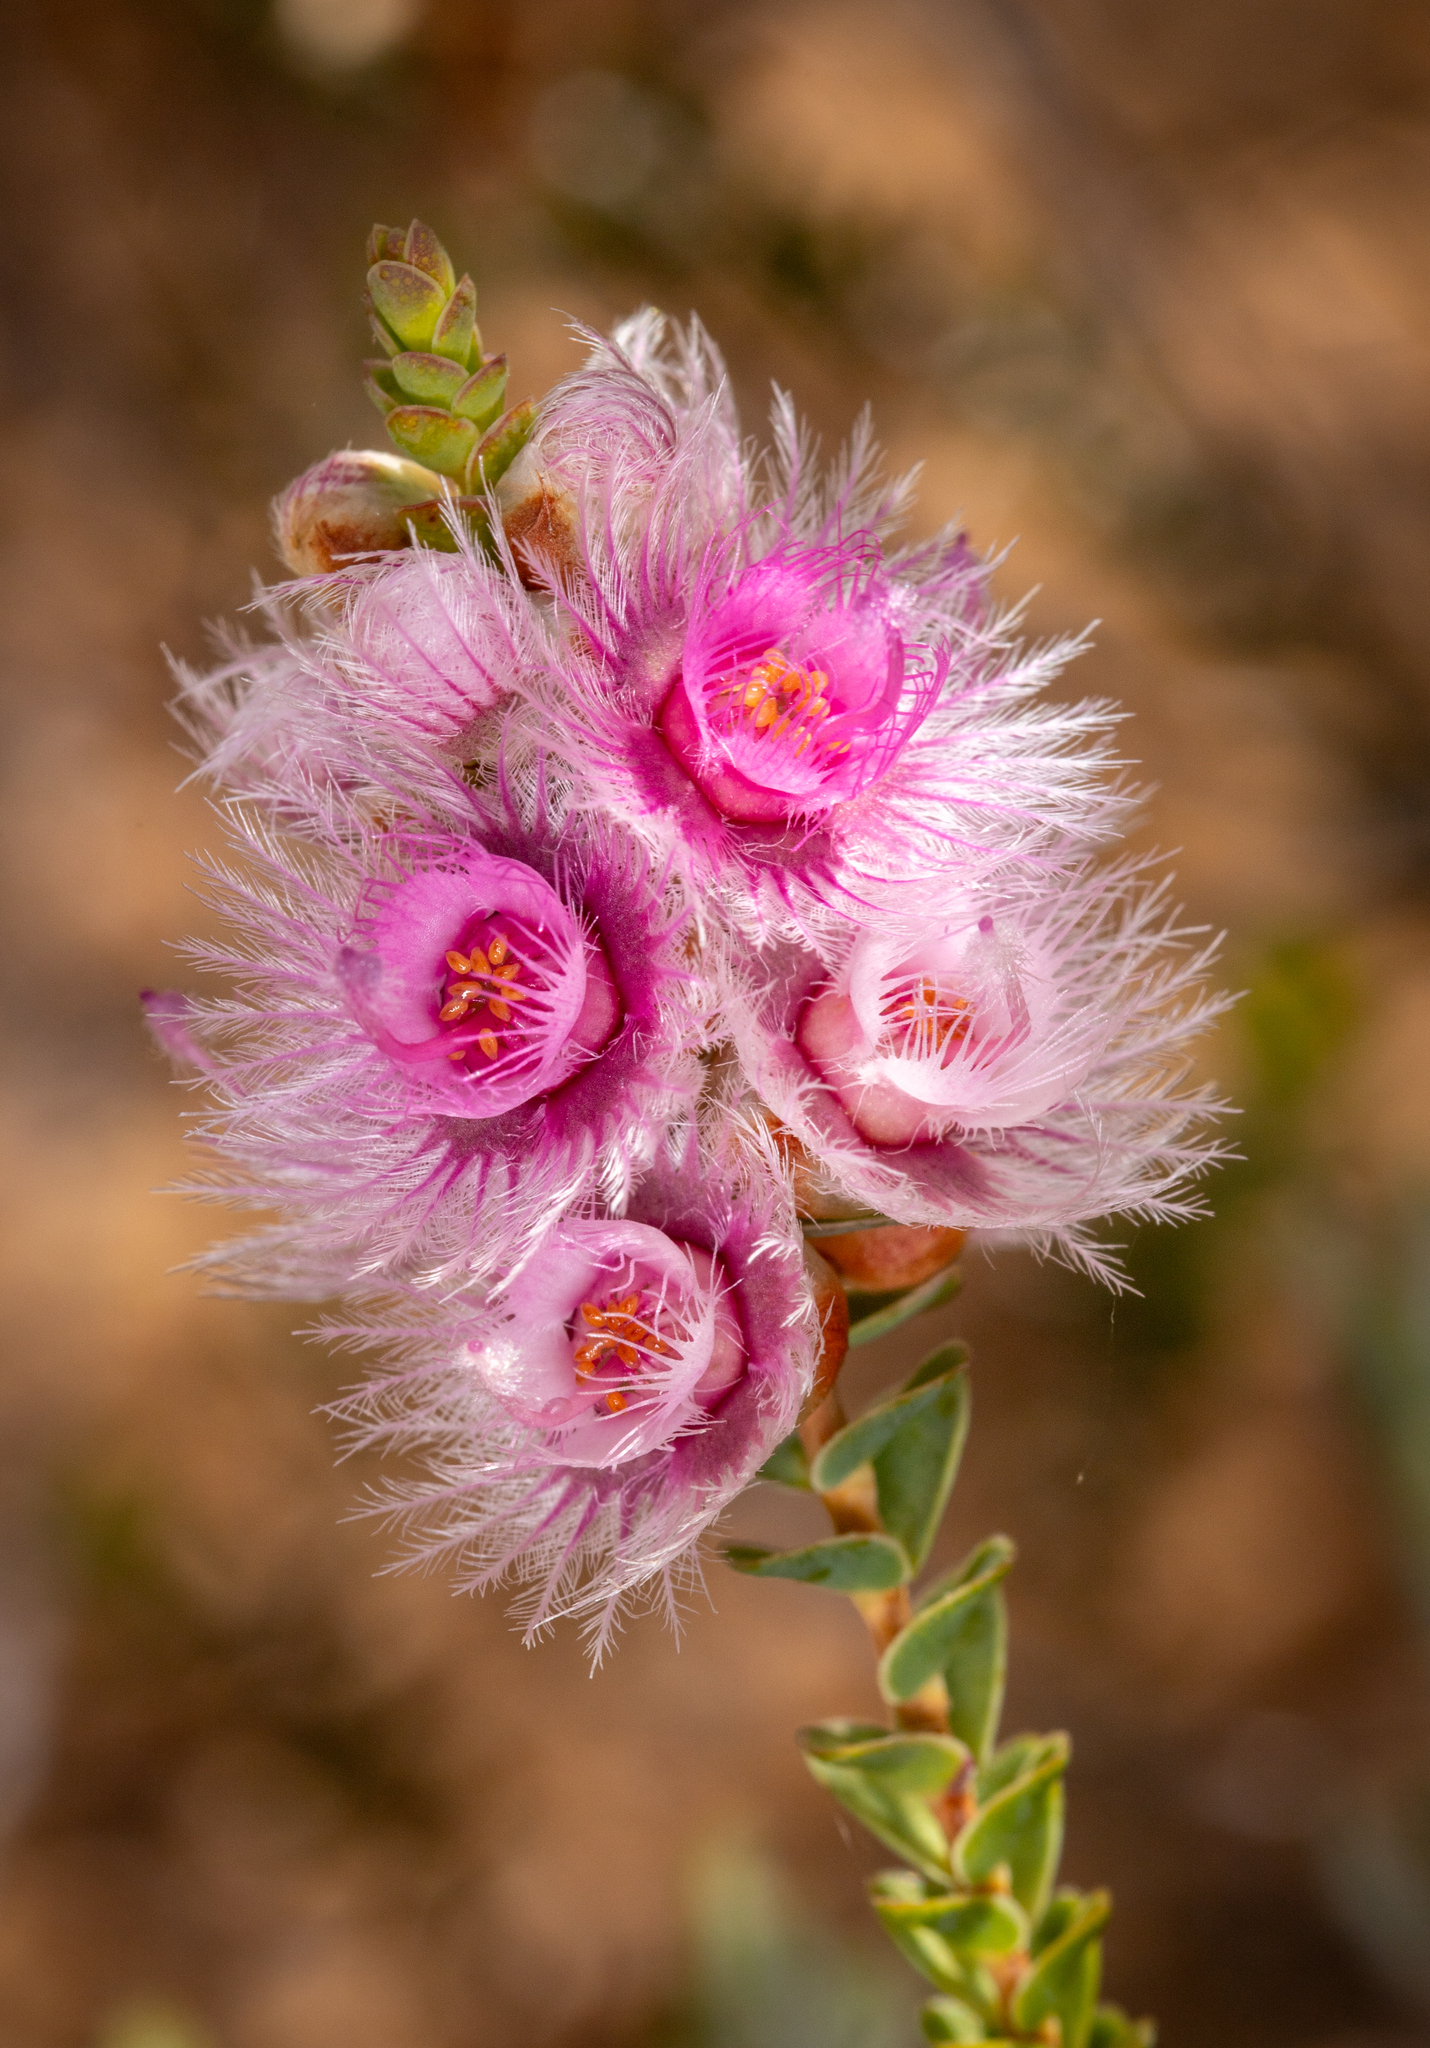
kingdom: Plantae
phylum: Tracheophyta
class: Magnoliopsida
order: Myrtales
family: Myrtaceae
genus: Verticordia
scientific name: Verticordia spicata
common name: Spike feather-flower
